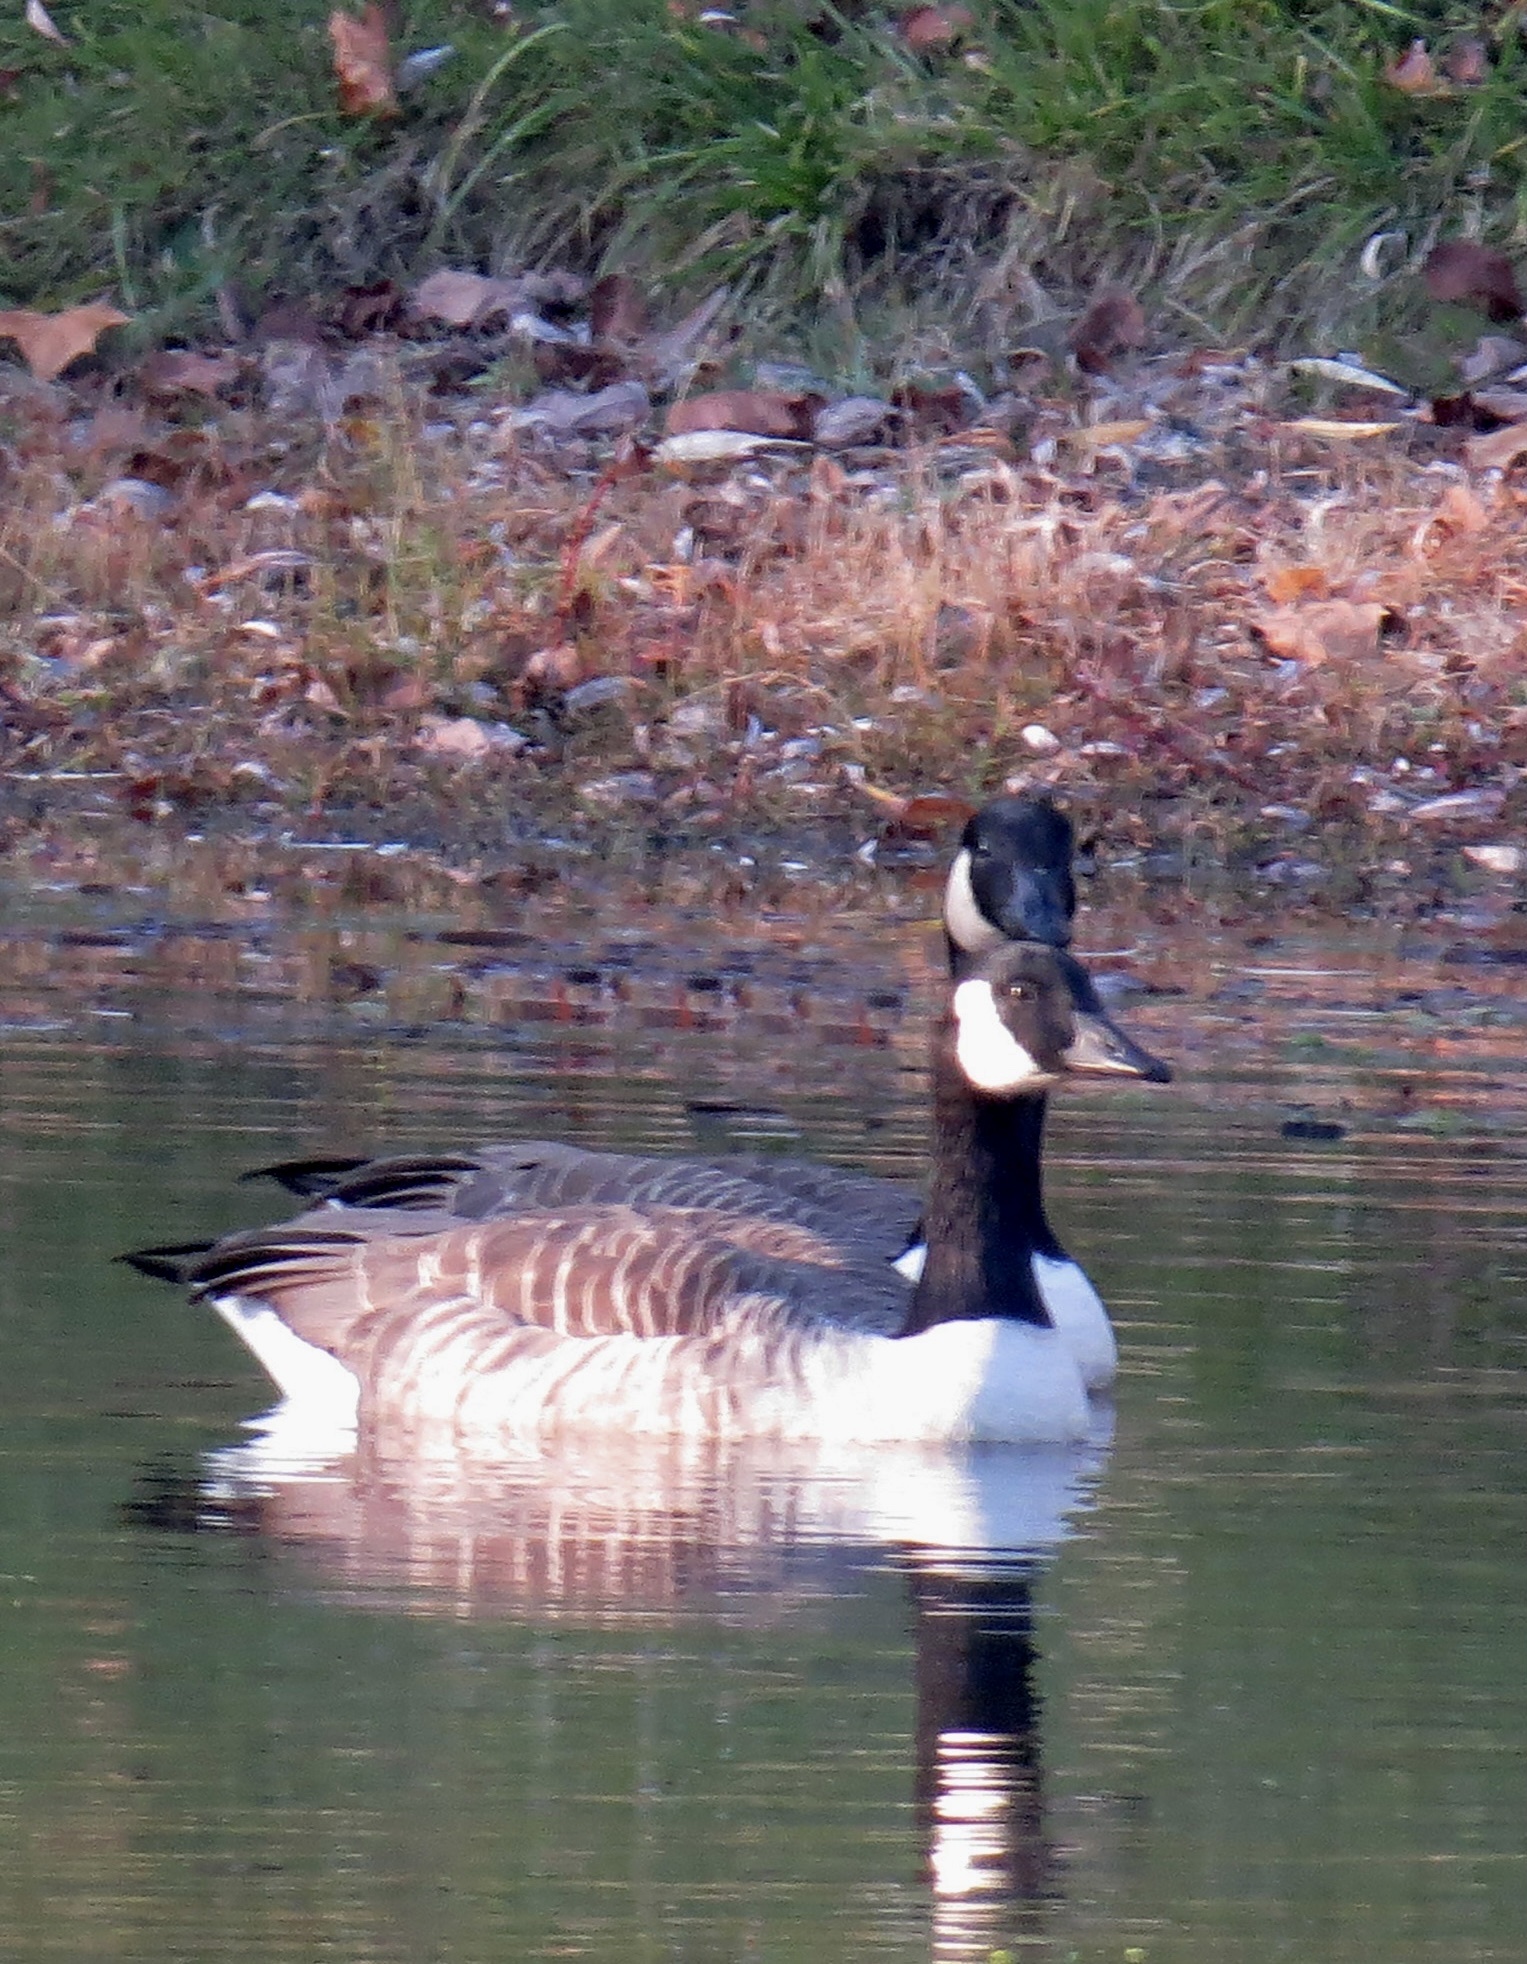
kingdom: Animalia
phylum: Chordata
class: Aves
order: Anseriformes
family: Anatidae
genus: Branta
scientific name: Branta canadensis
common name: Canada goose
